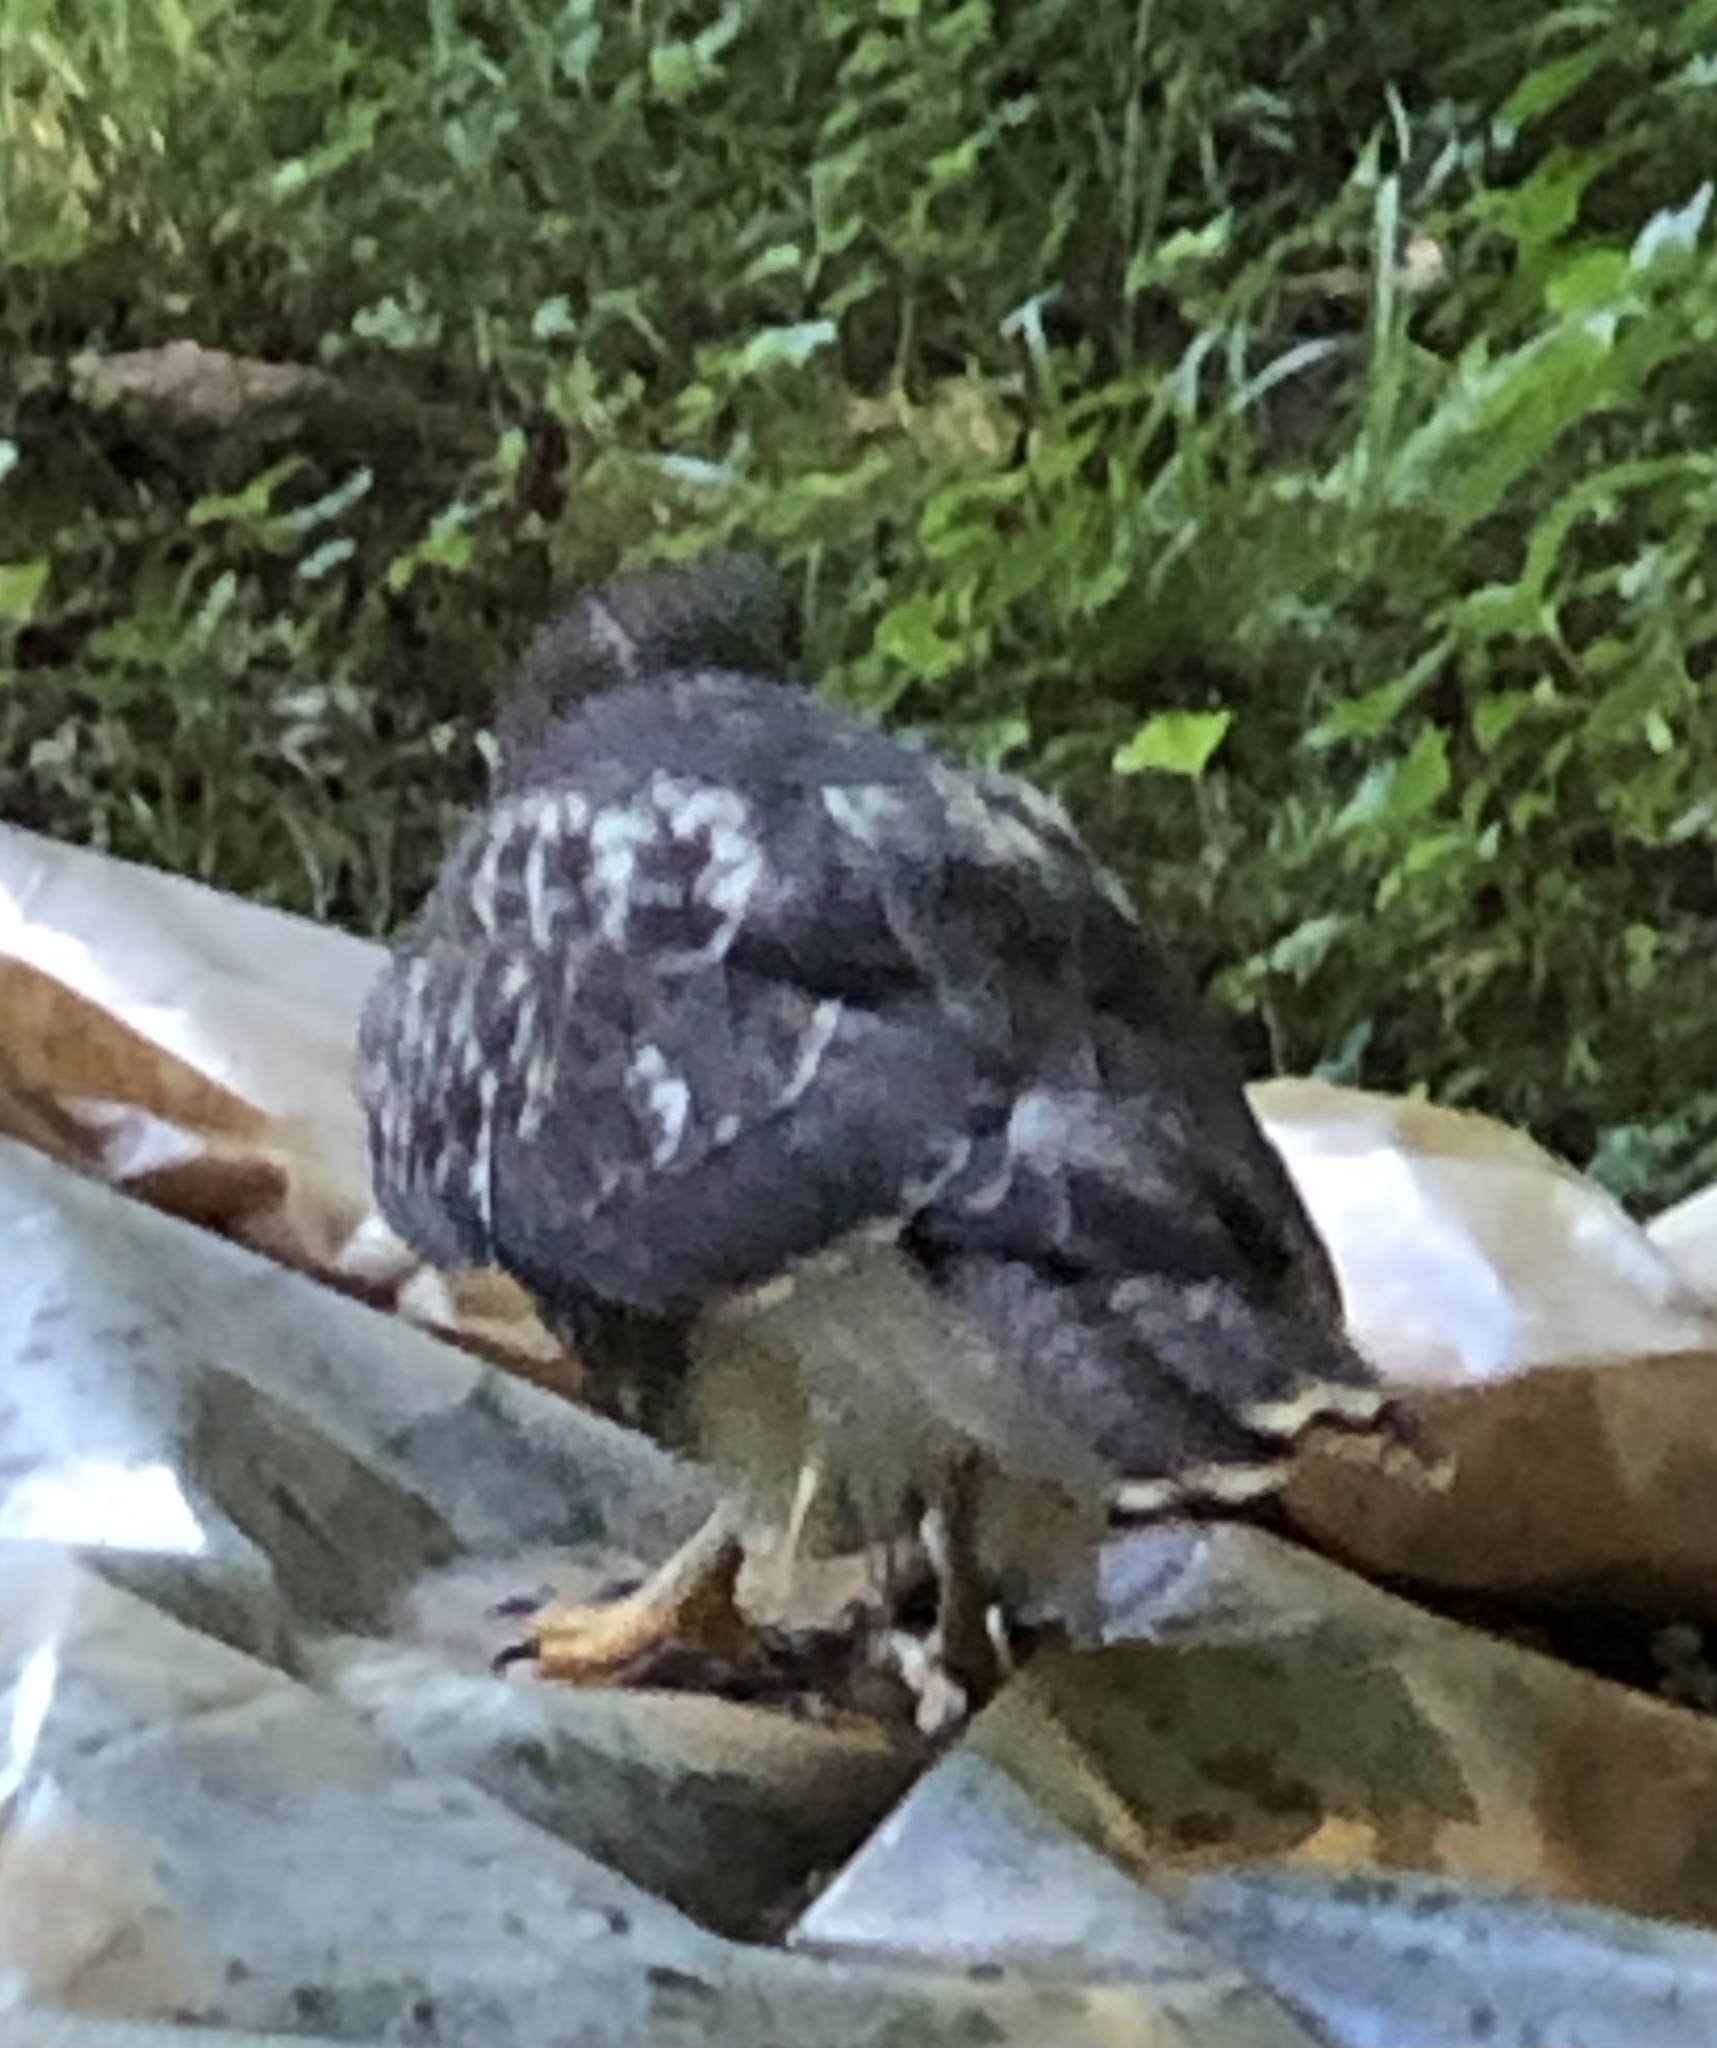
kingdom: Animalia
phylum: Chordata
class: Aves
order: Accipitriformes
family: Accipitridae
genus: Buteo
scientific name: Buteo jamaicensis
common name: Red-tailed hawk
